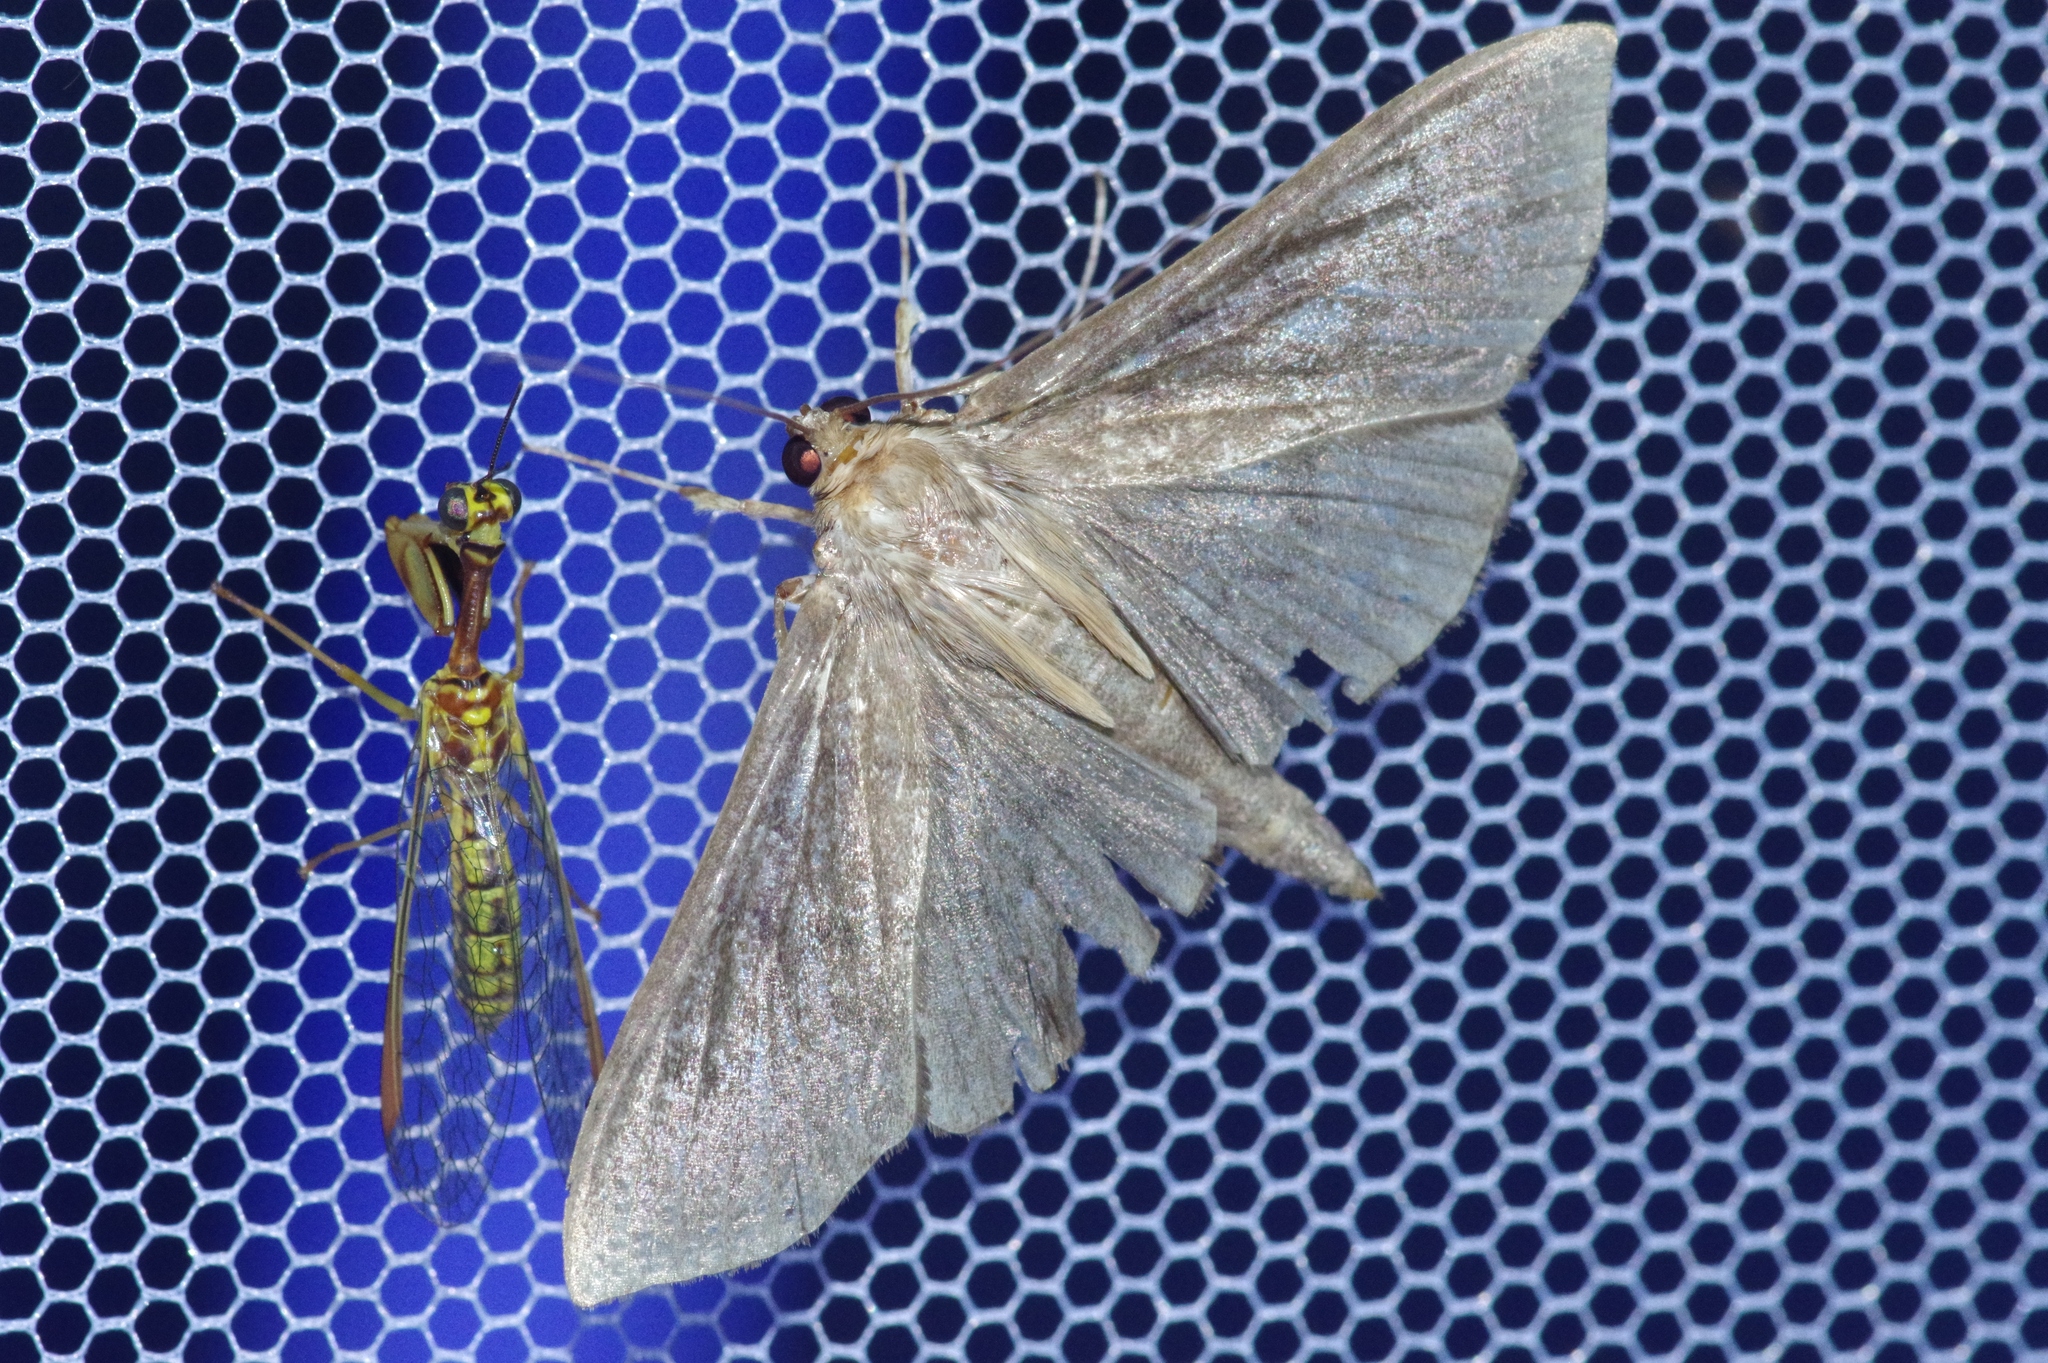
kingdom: Animalia
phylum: Arthropoda
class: Insecta
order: Lepidoptera
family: Crambidae
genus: Omiodes
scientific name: Omiodes noctescens
